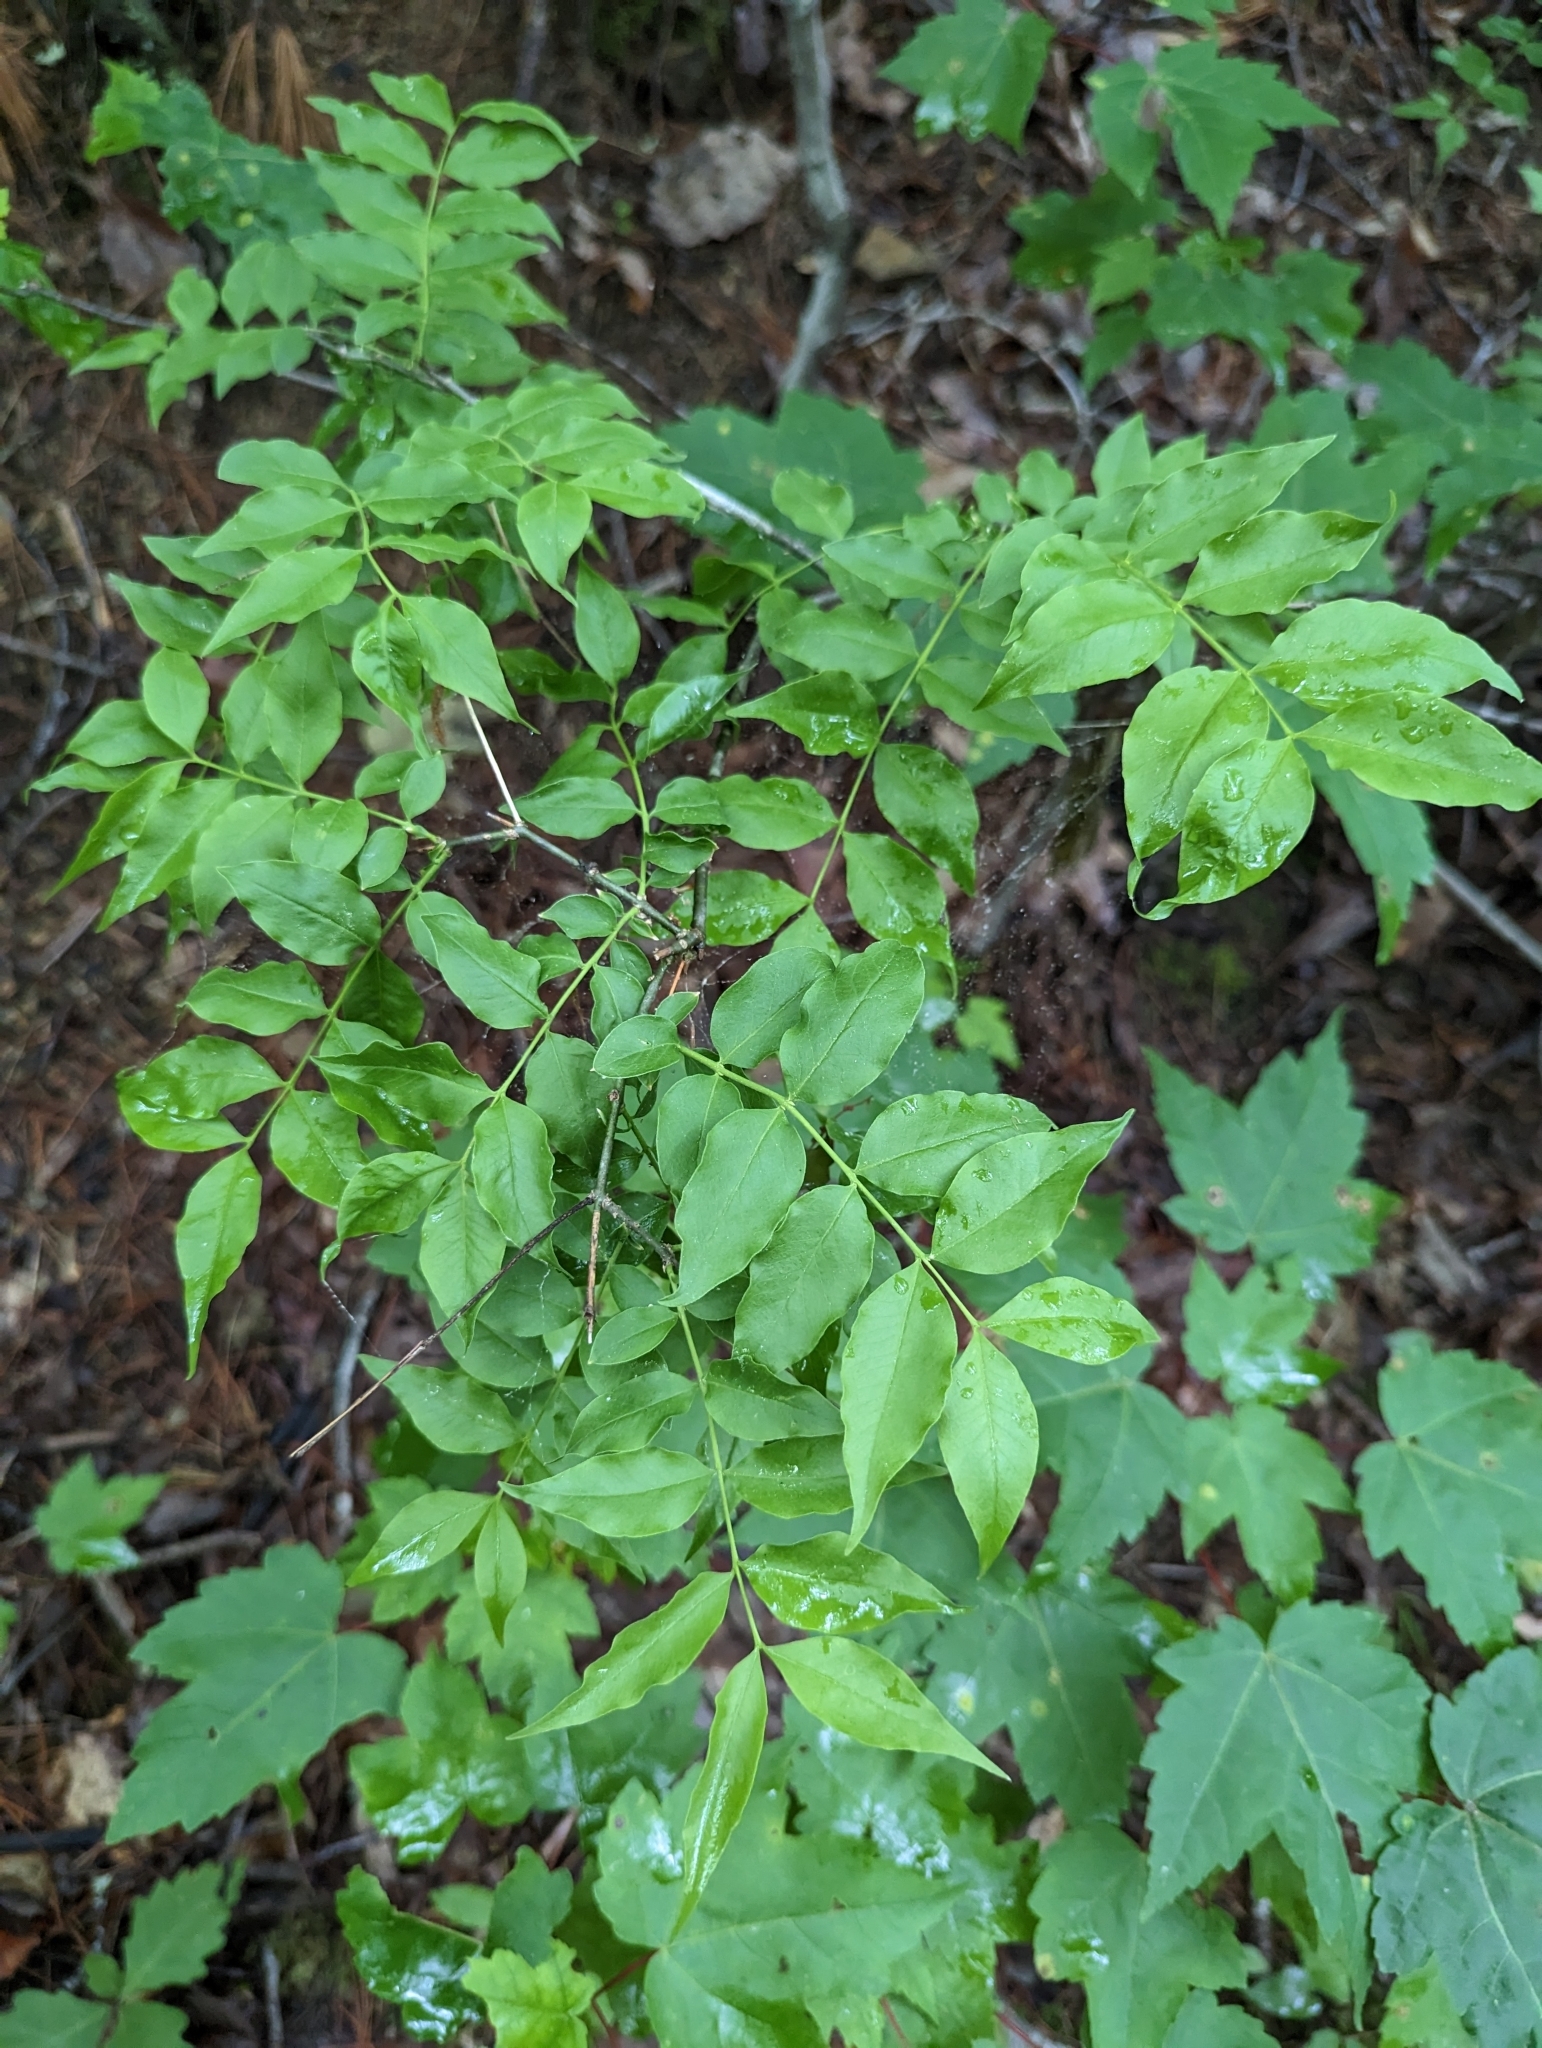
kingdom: Plantae
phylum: Tracheophyta
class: Magnoliopsida
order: Santalales
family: Thesiaceae
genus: Buckleya
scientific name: Buckleya distichophylla
